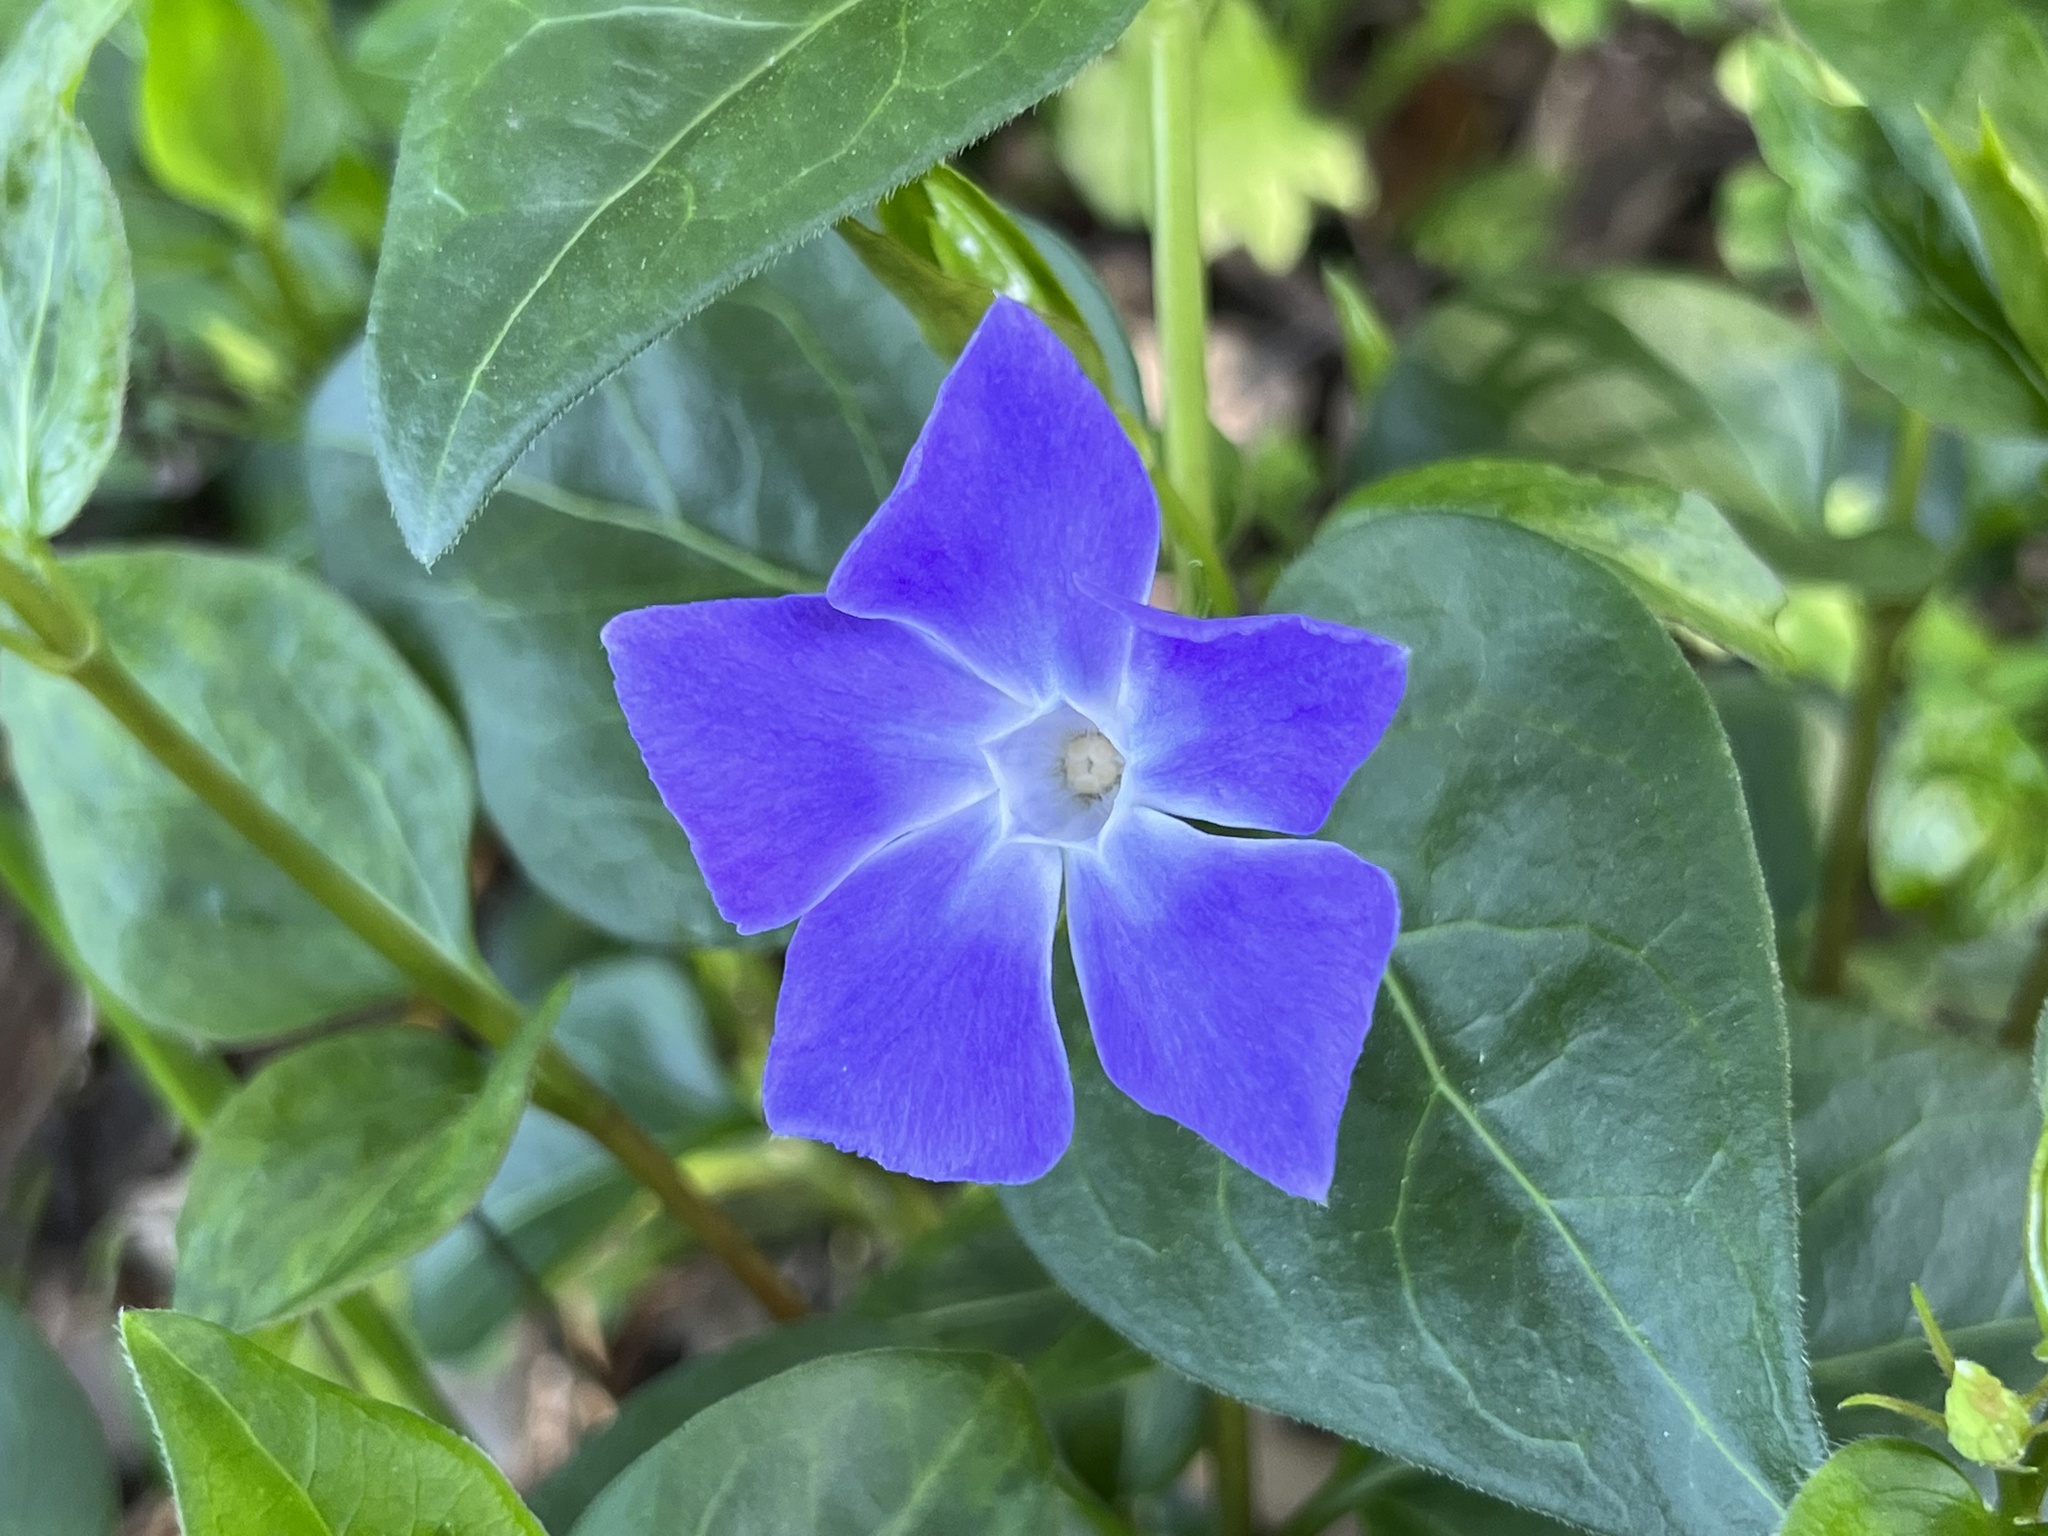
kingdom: Plantae
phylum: Tracheophyta
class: Magnoliopsida
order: Gentianales
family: Apocynaceae
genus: Vinca
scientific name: Vinca major
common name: Greater periwinkle
